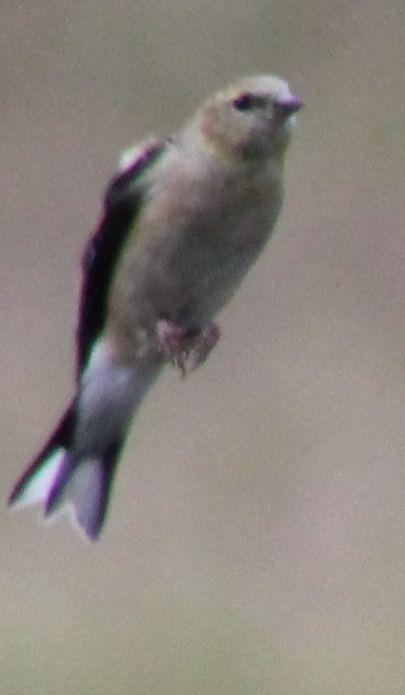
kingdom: Animalia
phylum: Chordata
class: Aves
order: Passeriformes
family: Fringillidae
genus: Spinus
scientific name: Spinus tristis
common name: American goldfinch
